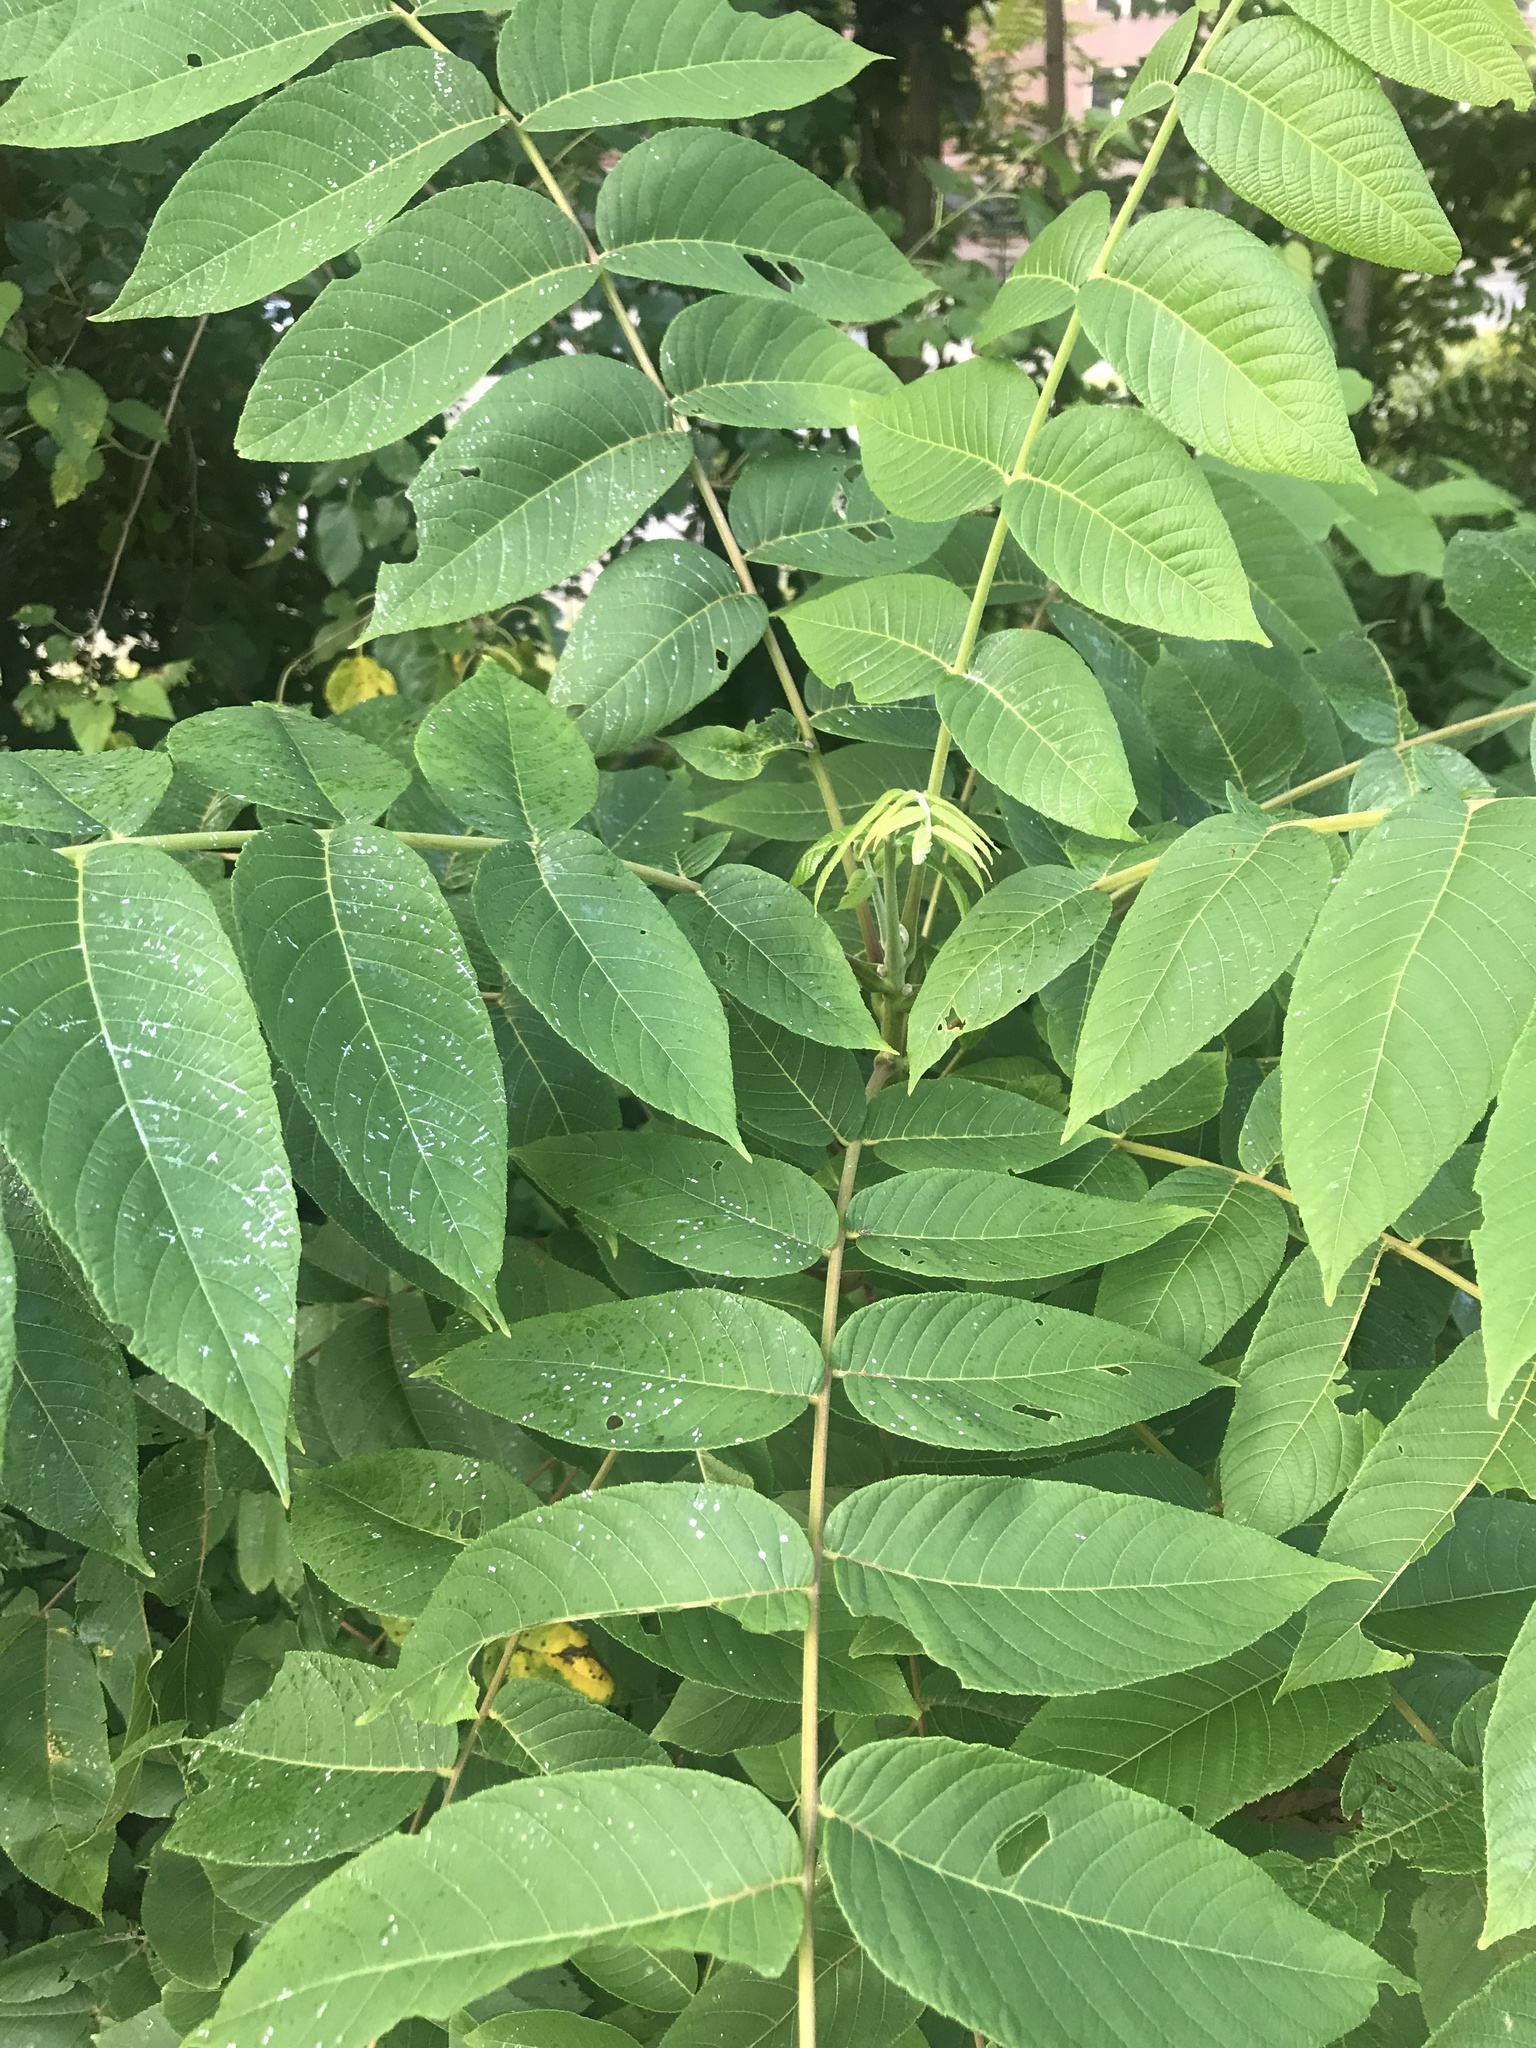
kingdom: Plantae
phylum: Tracheophyta
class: Magnoliopsida
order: Fagales
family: Juglandaceae
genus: Juglans
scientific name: Juglans nigra
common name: Black walnut
